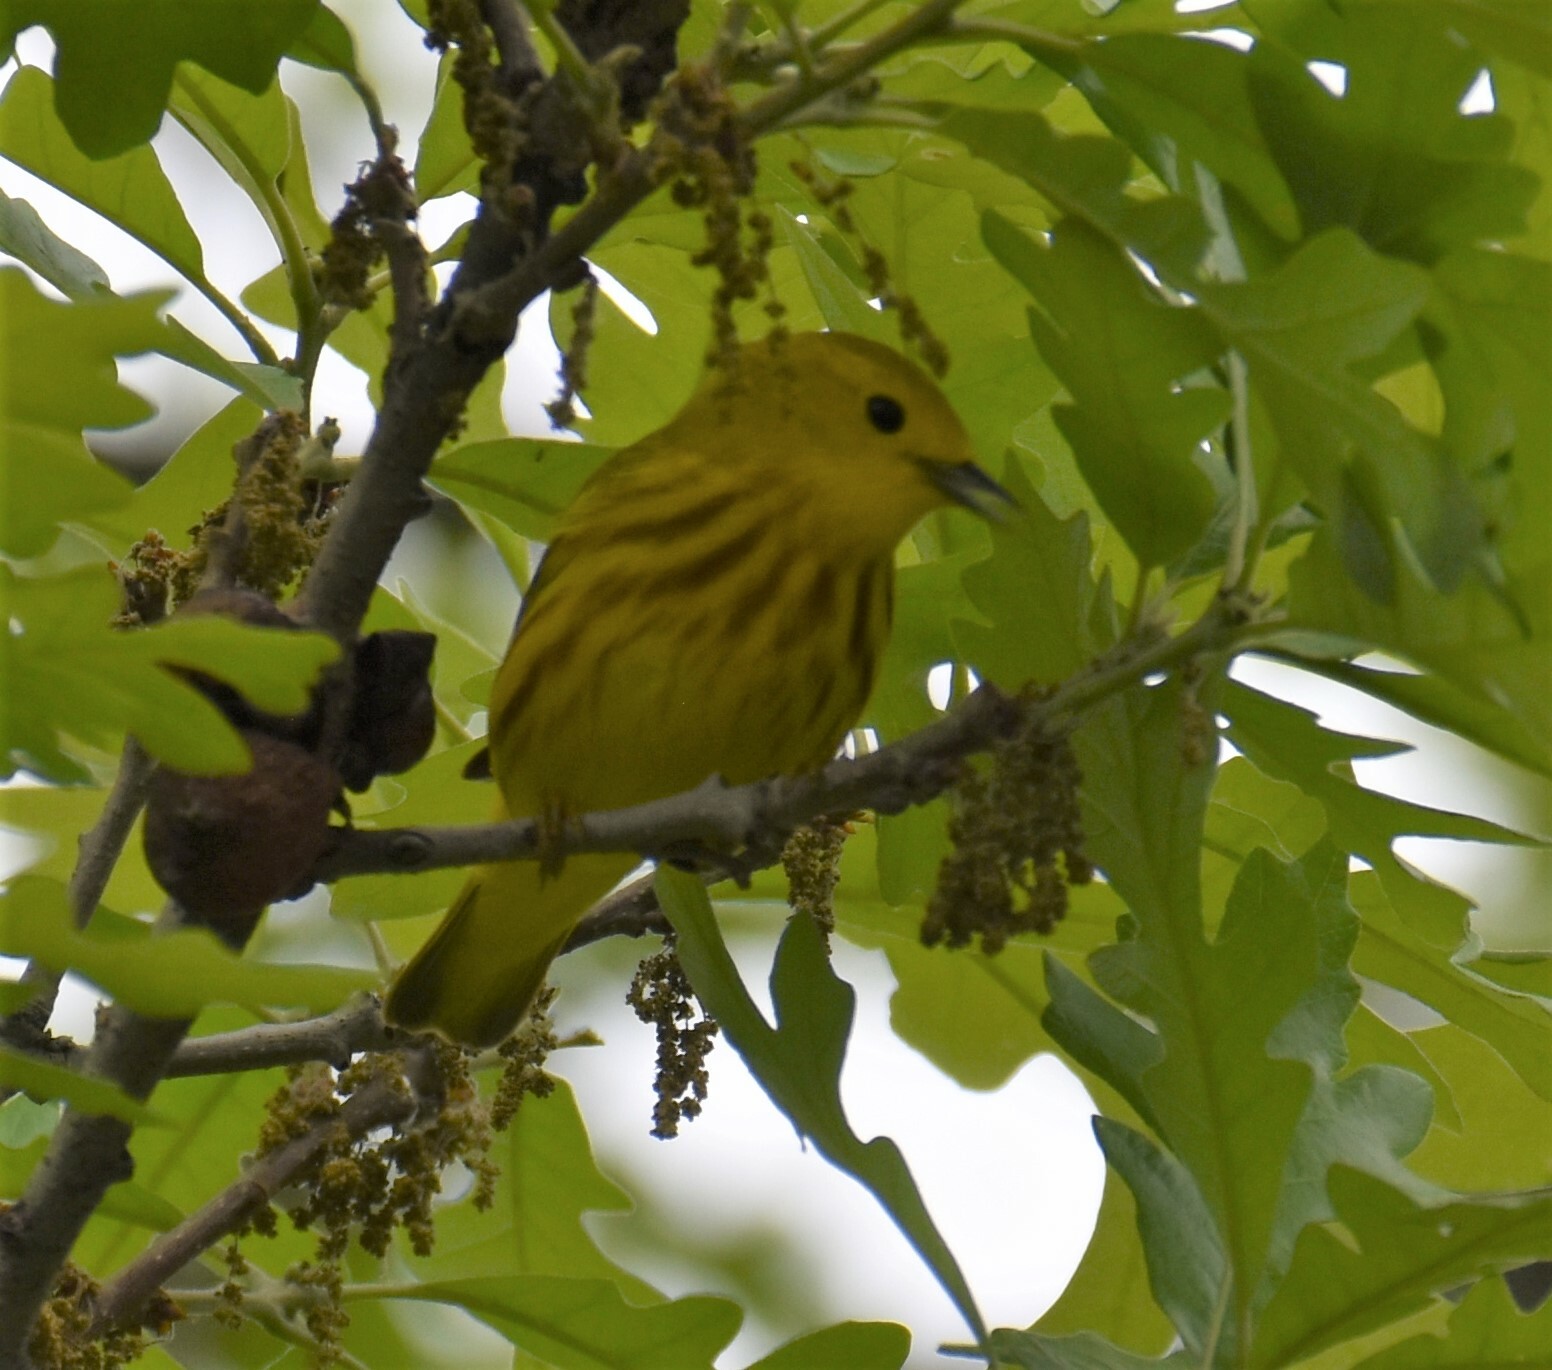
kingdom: Animalia
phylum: Chordata
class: Aves
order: Passeriformes
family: Parulidae
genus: Setophaga
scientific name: Setophaga petechia
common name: Yellow warbler
